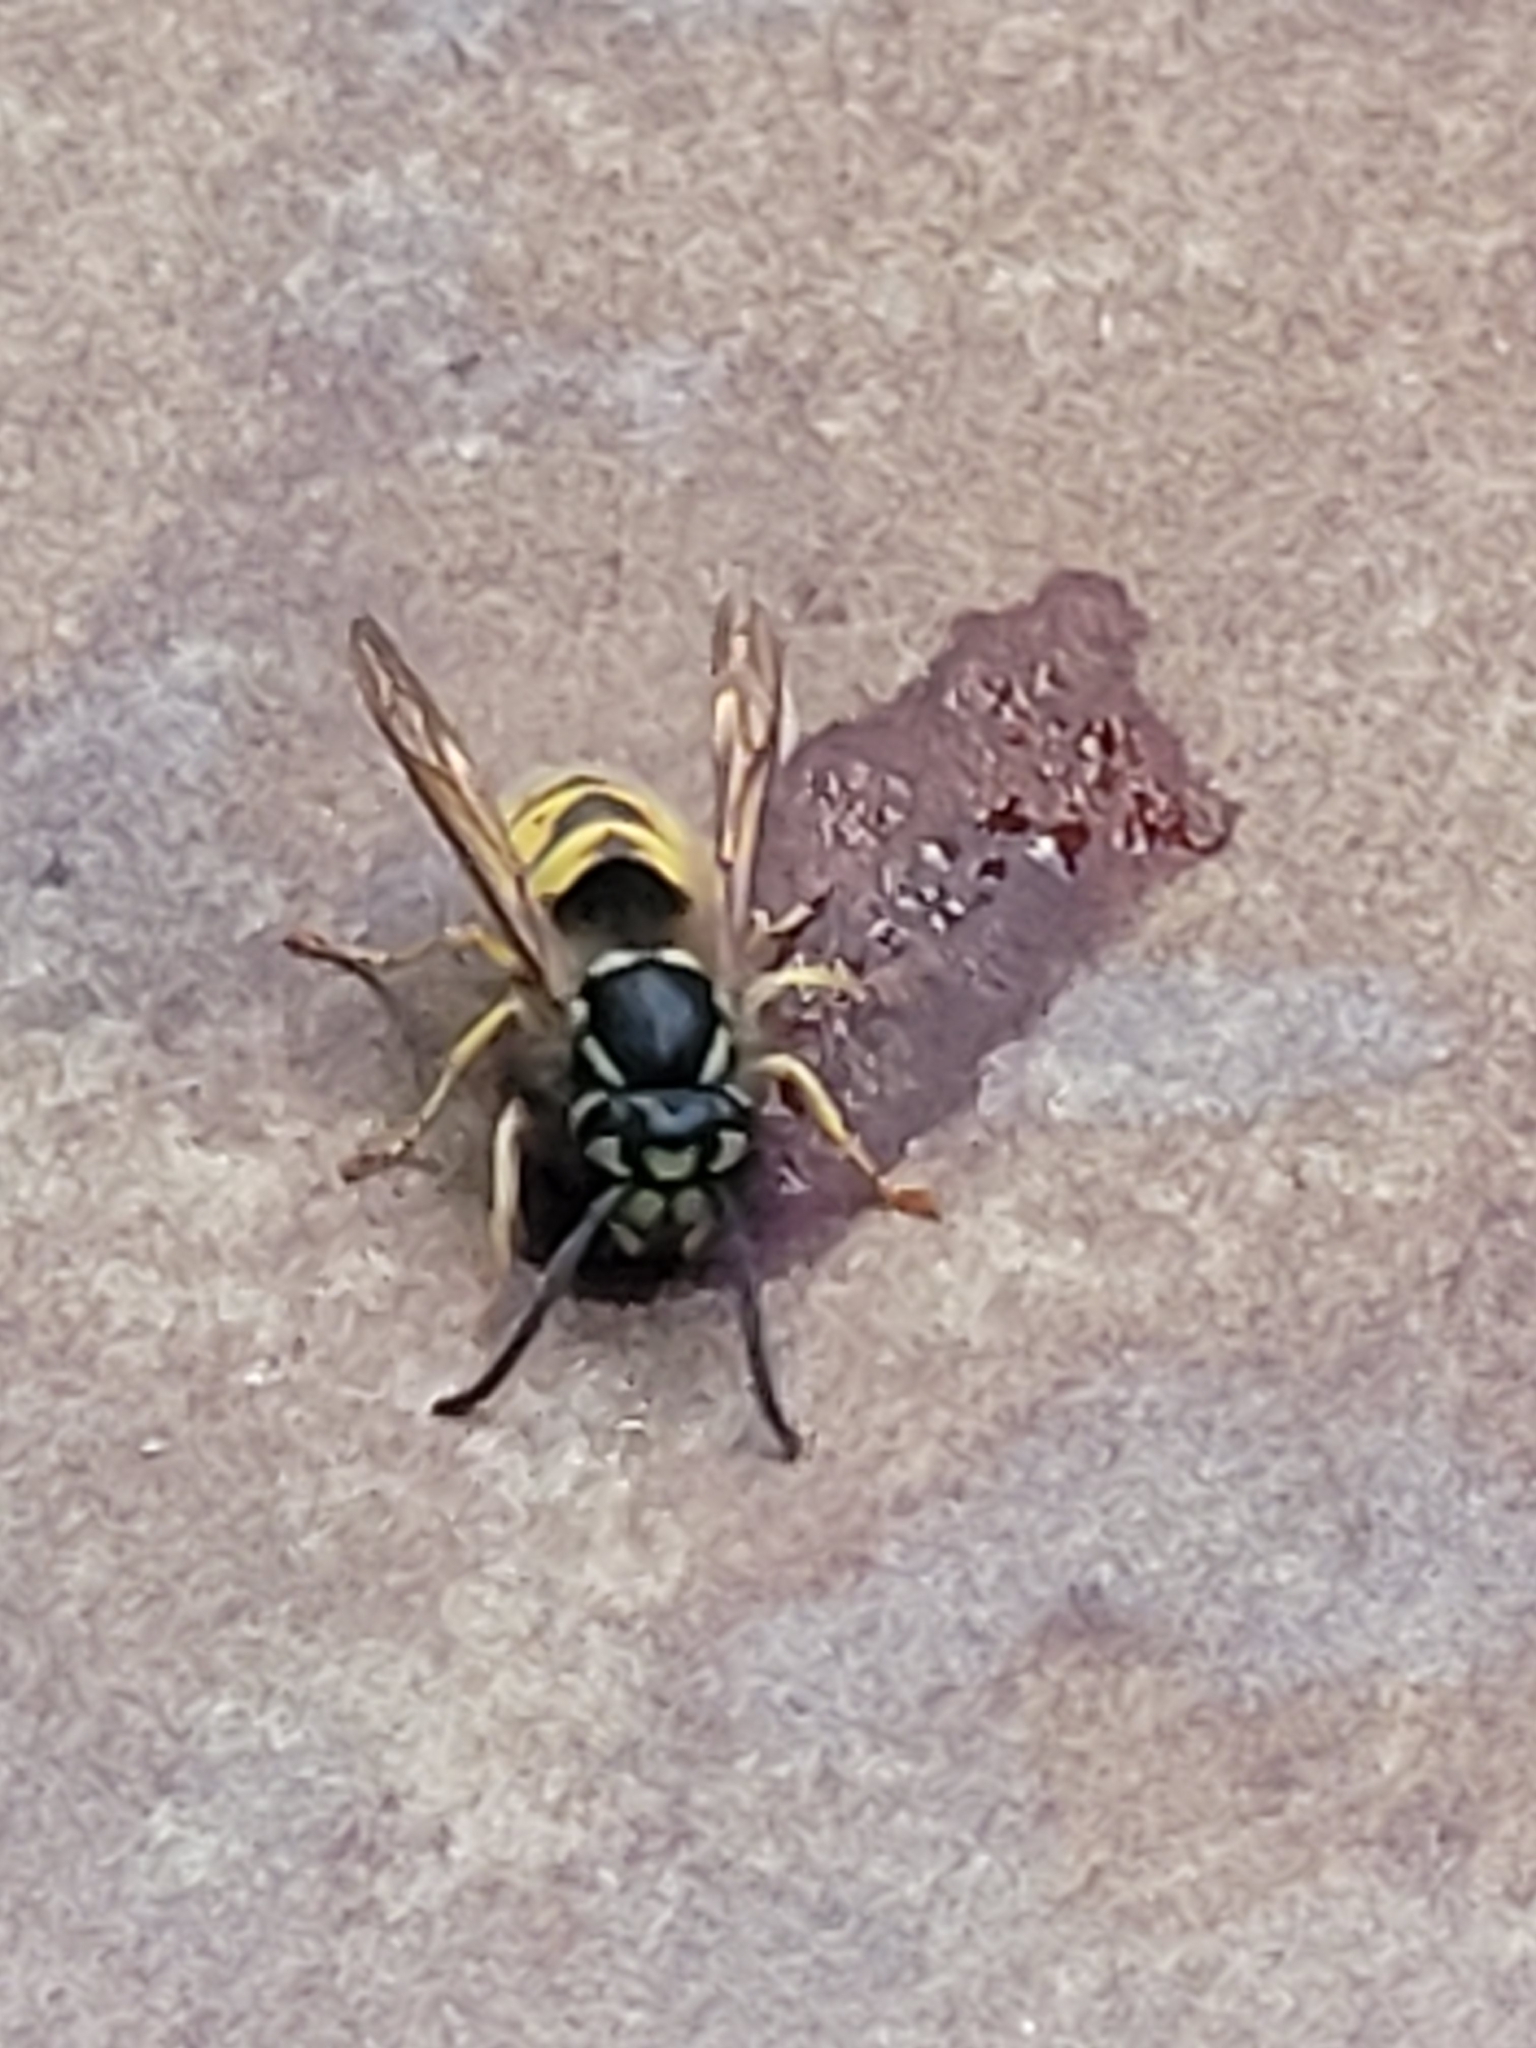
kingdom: Animalia
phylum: Arthropoda
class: Insecta
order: Hymenoptera
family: Vespidae
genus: Vespula
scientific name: Vespula vulgaris
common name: Common wasp
